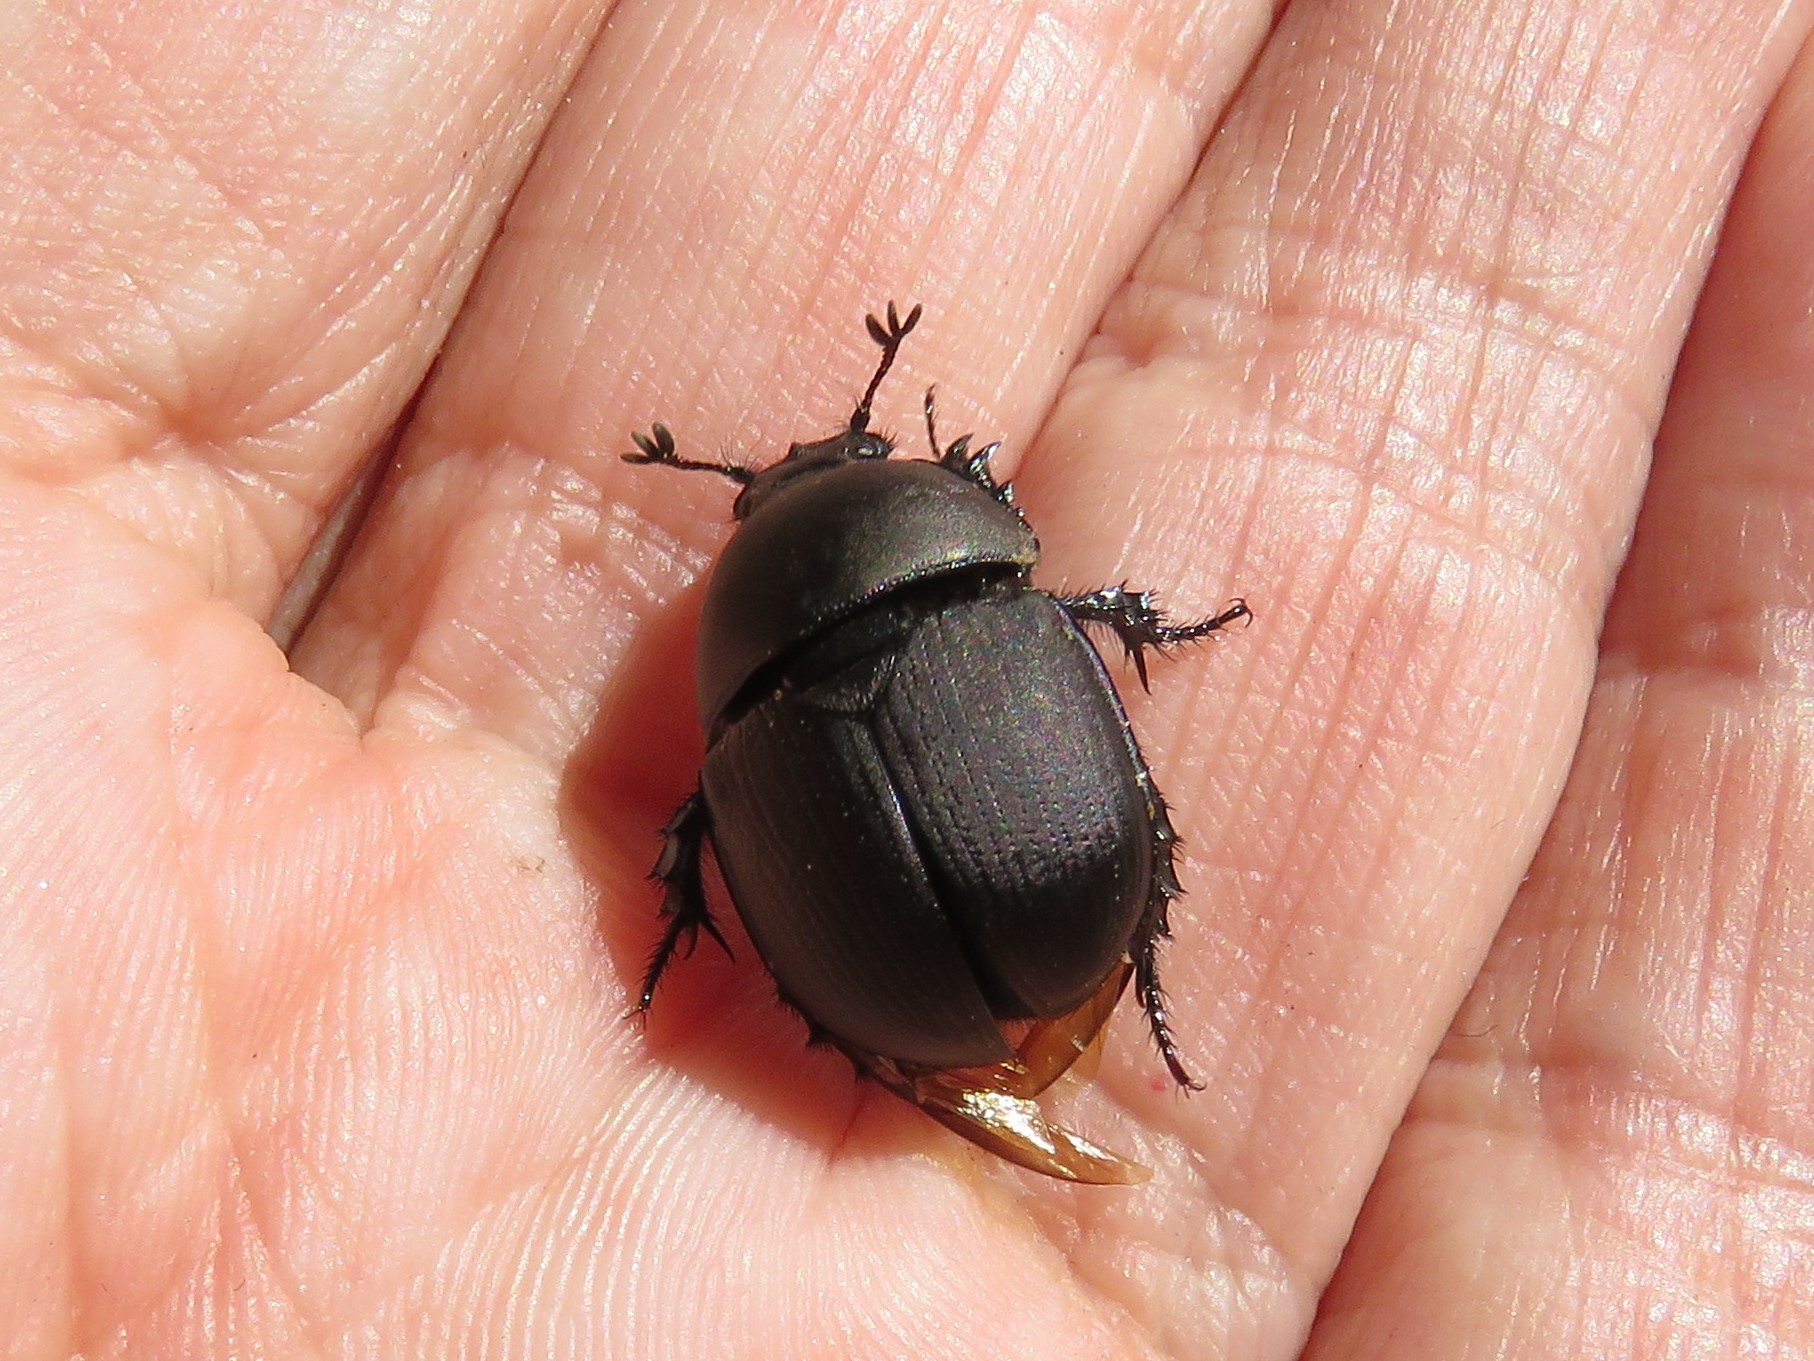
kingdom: Animalia
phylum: Arthropoda
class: Insecta
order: Coleoptera
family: Geotrupidae
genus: Geohowdenius
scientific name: Geohowdenius opacus
